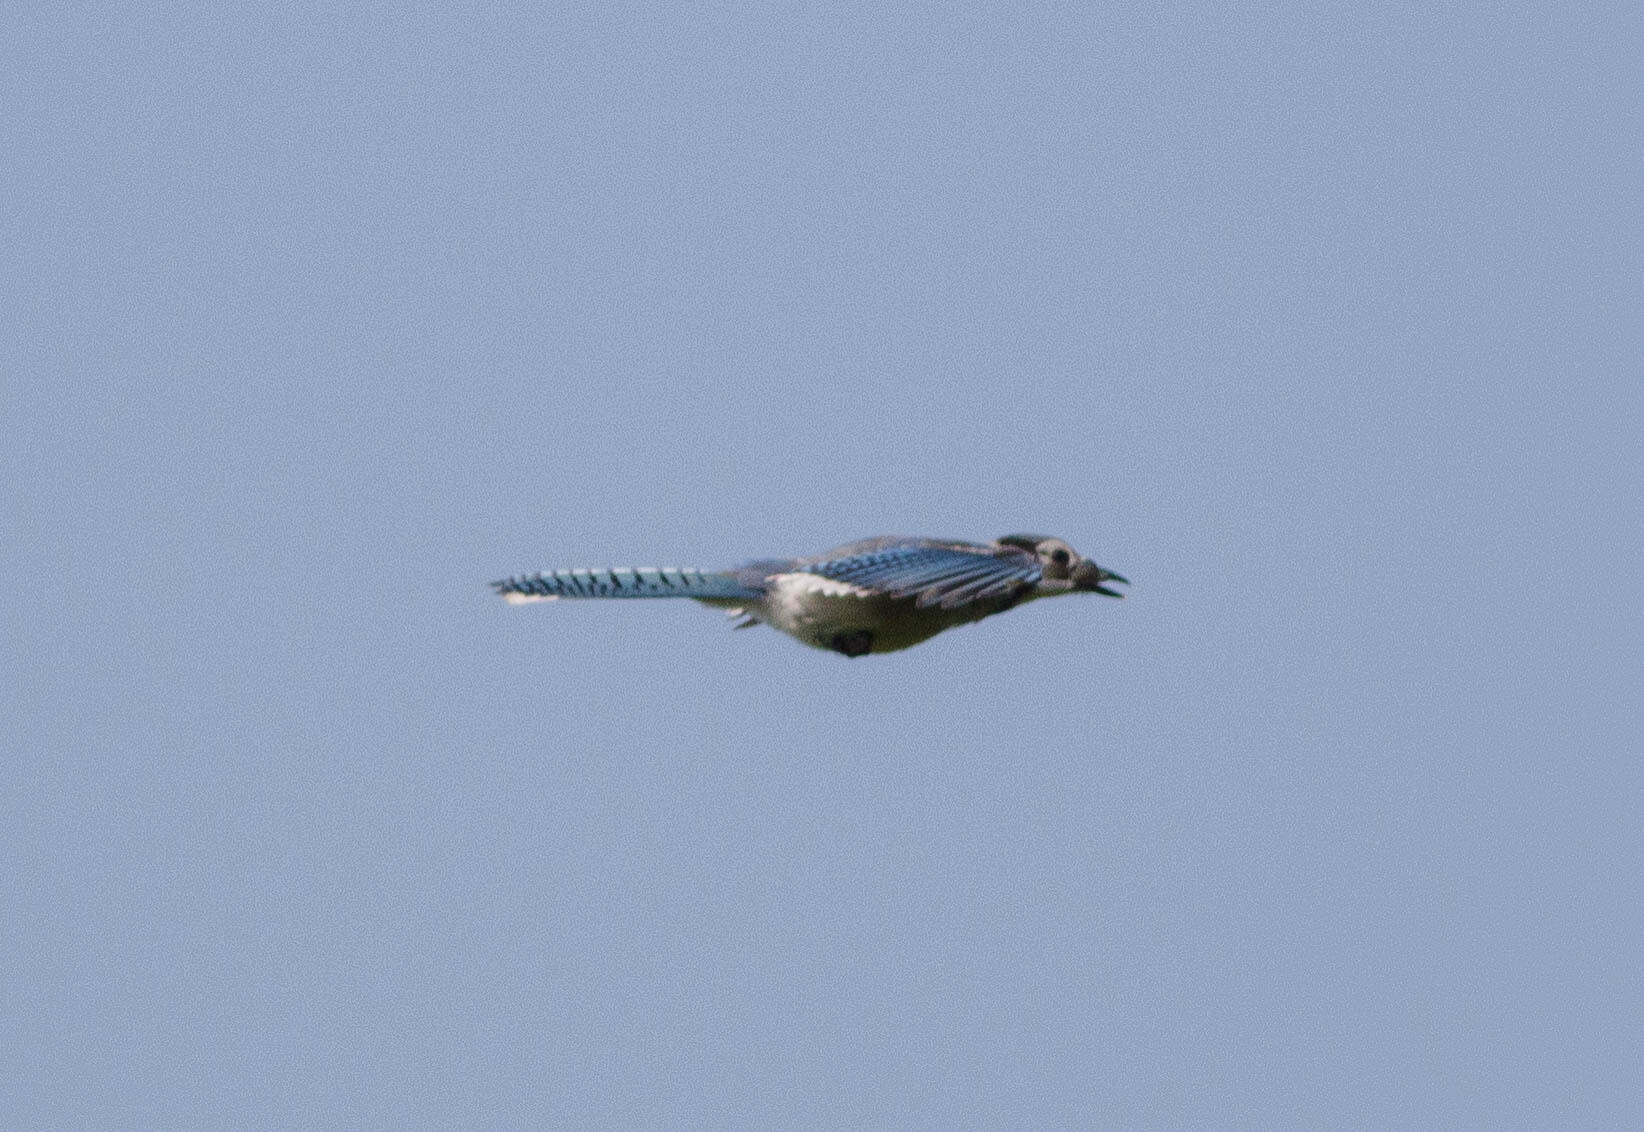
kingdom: Animalia
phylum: Chordata
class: Aves
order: Passeriformes
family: Corvidae
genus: Cyanocitta
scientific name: Cyanocitta cristata
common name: Blue jay
